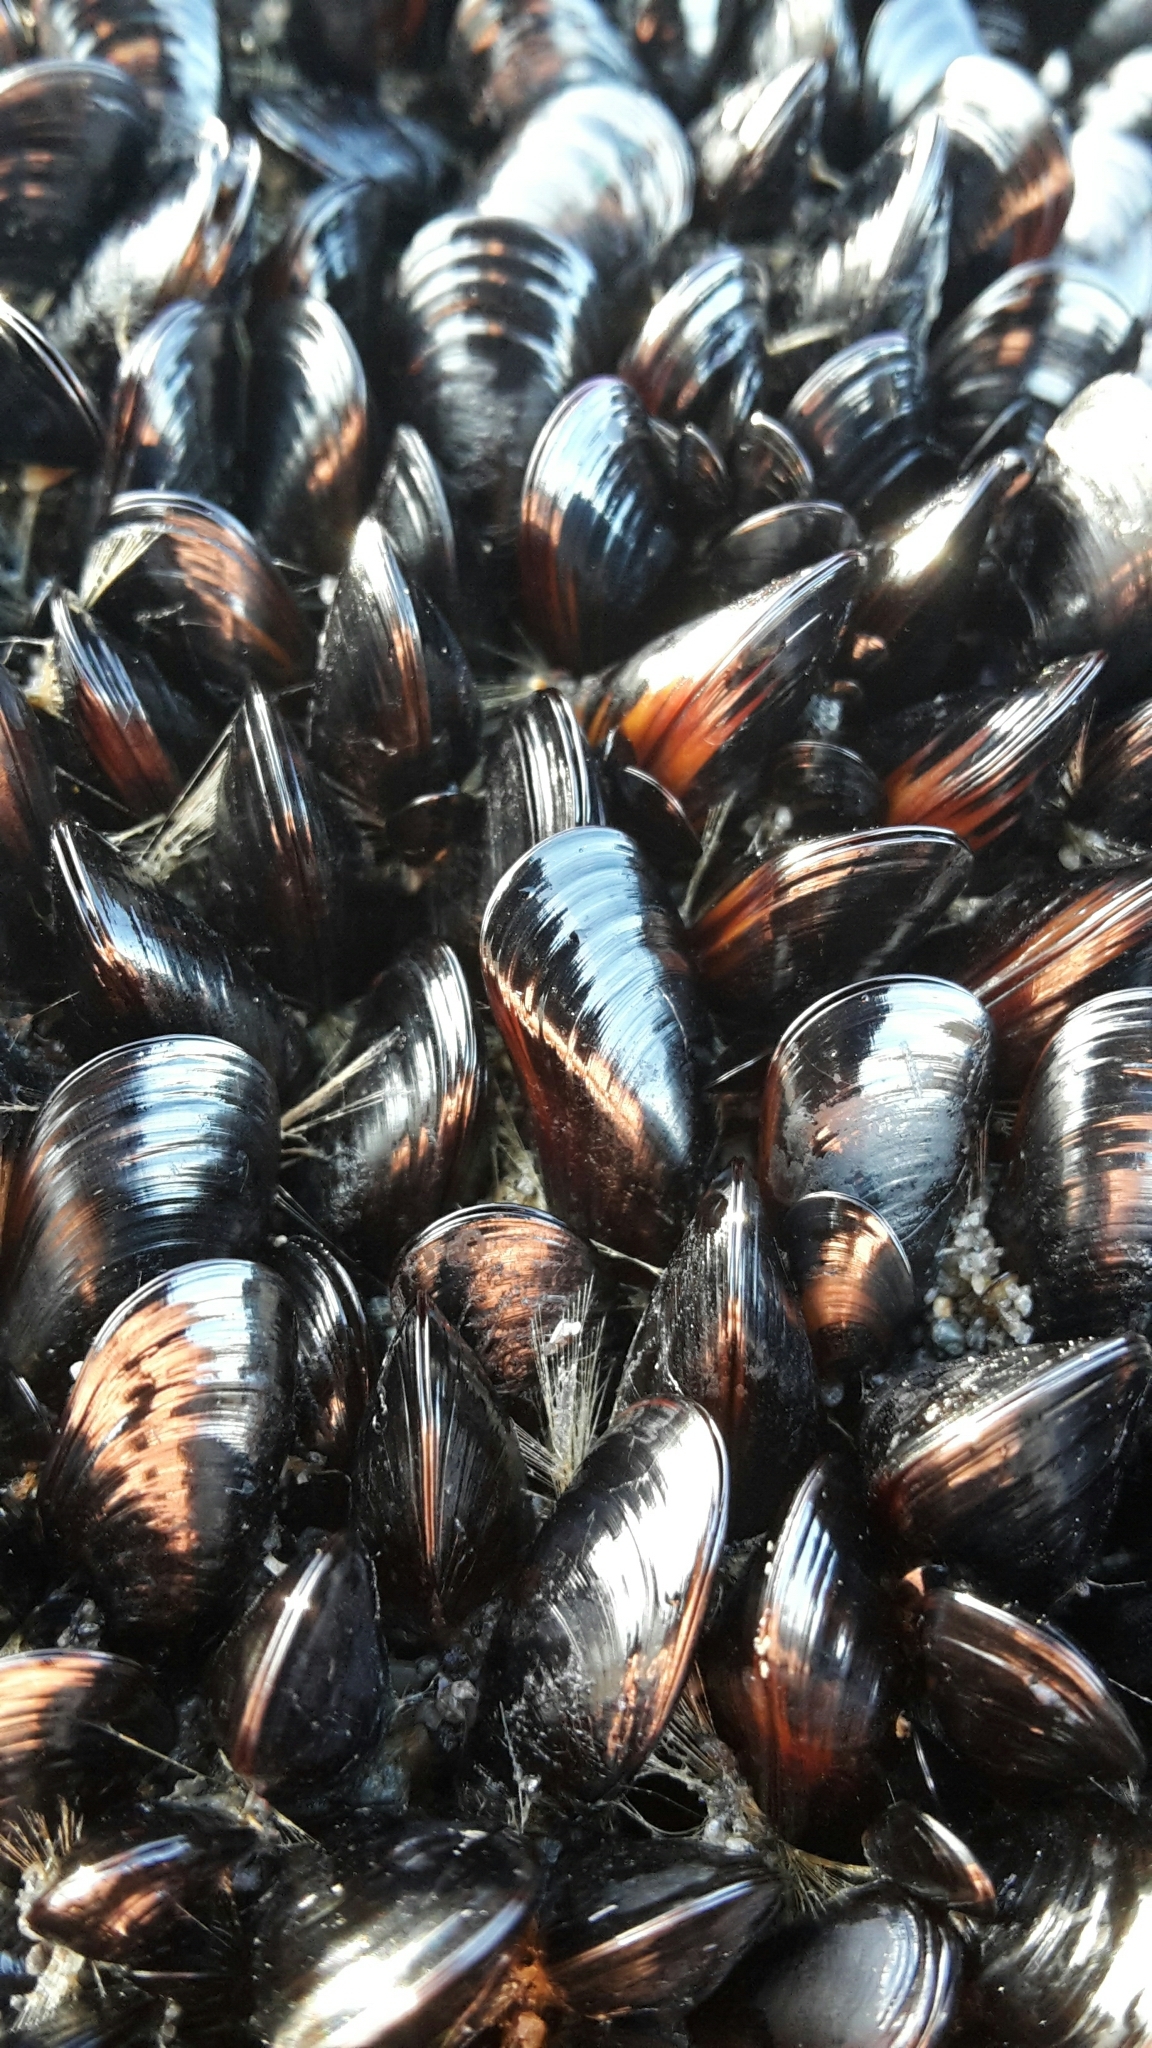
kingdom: Animalia
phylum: Mollusca
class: Bivalvia
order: Mytilida
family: Mytilidae
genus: Xenostrobus
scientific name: Xenostrobus neozelanicus
